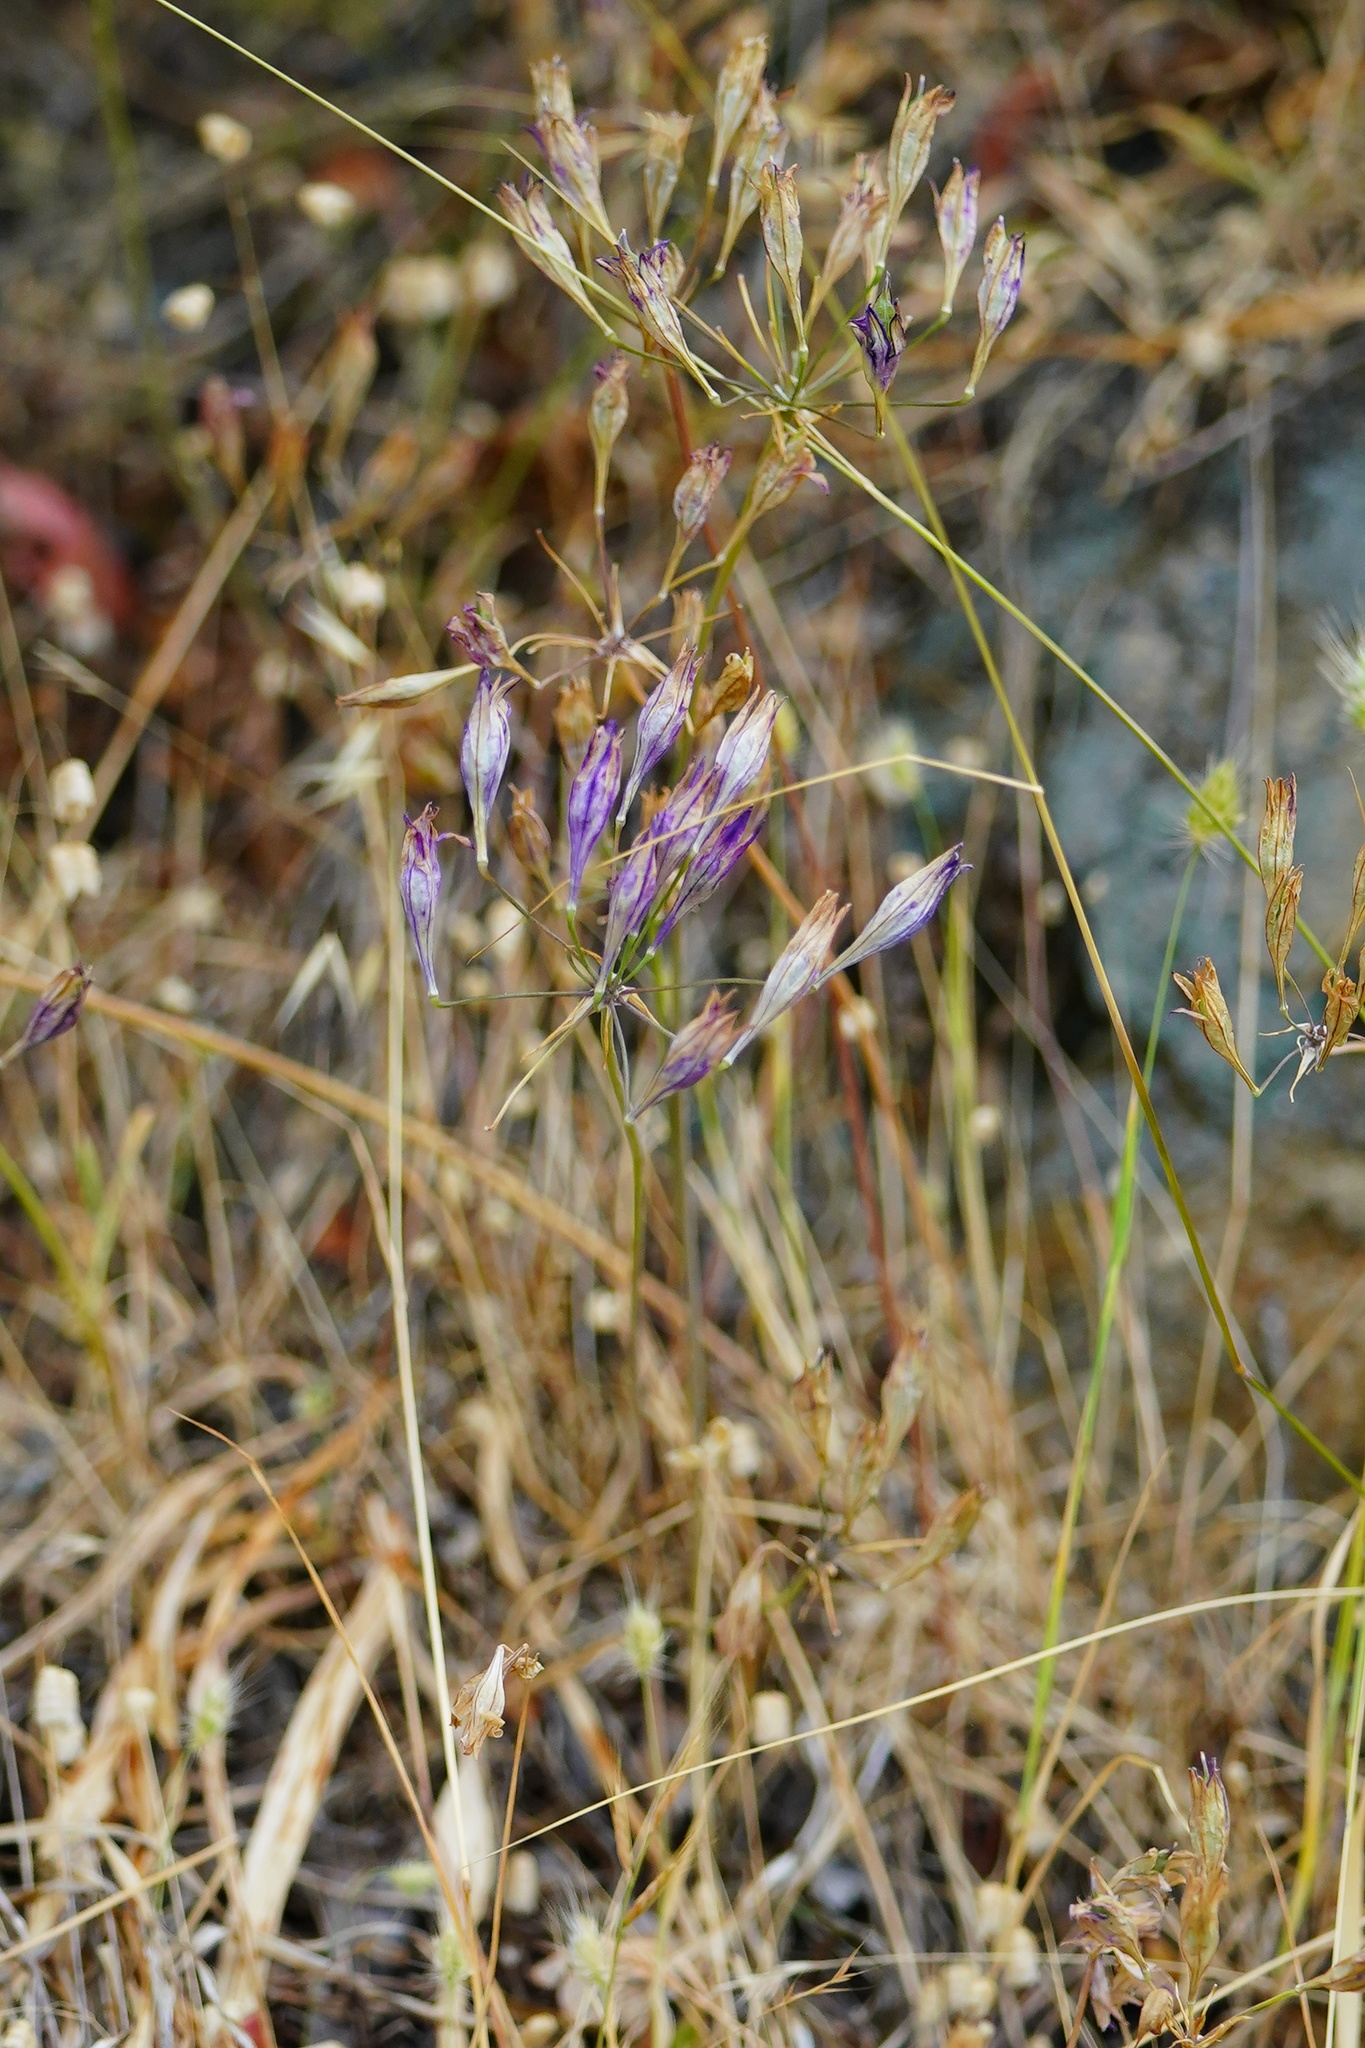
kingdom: Plantae
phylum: Tracheophyta
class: Liliopsida
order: Asparagales
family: Asparagaceae
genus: Triteleia
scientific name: Triteleia laxa
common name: Triplet-lily
